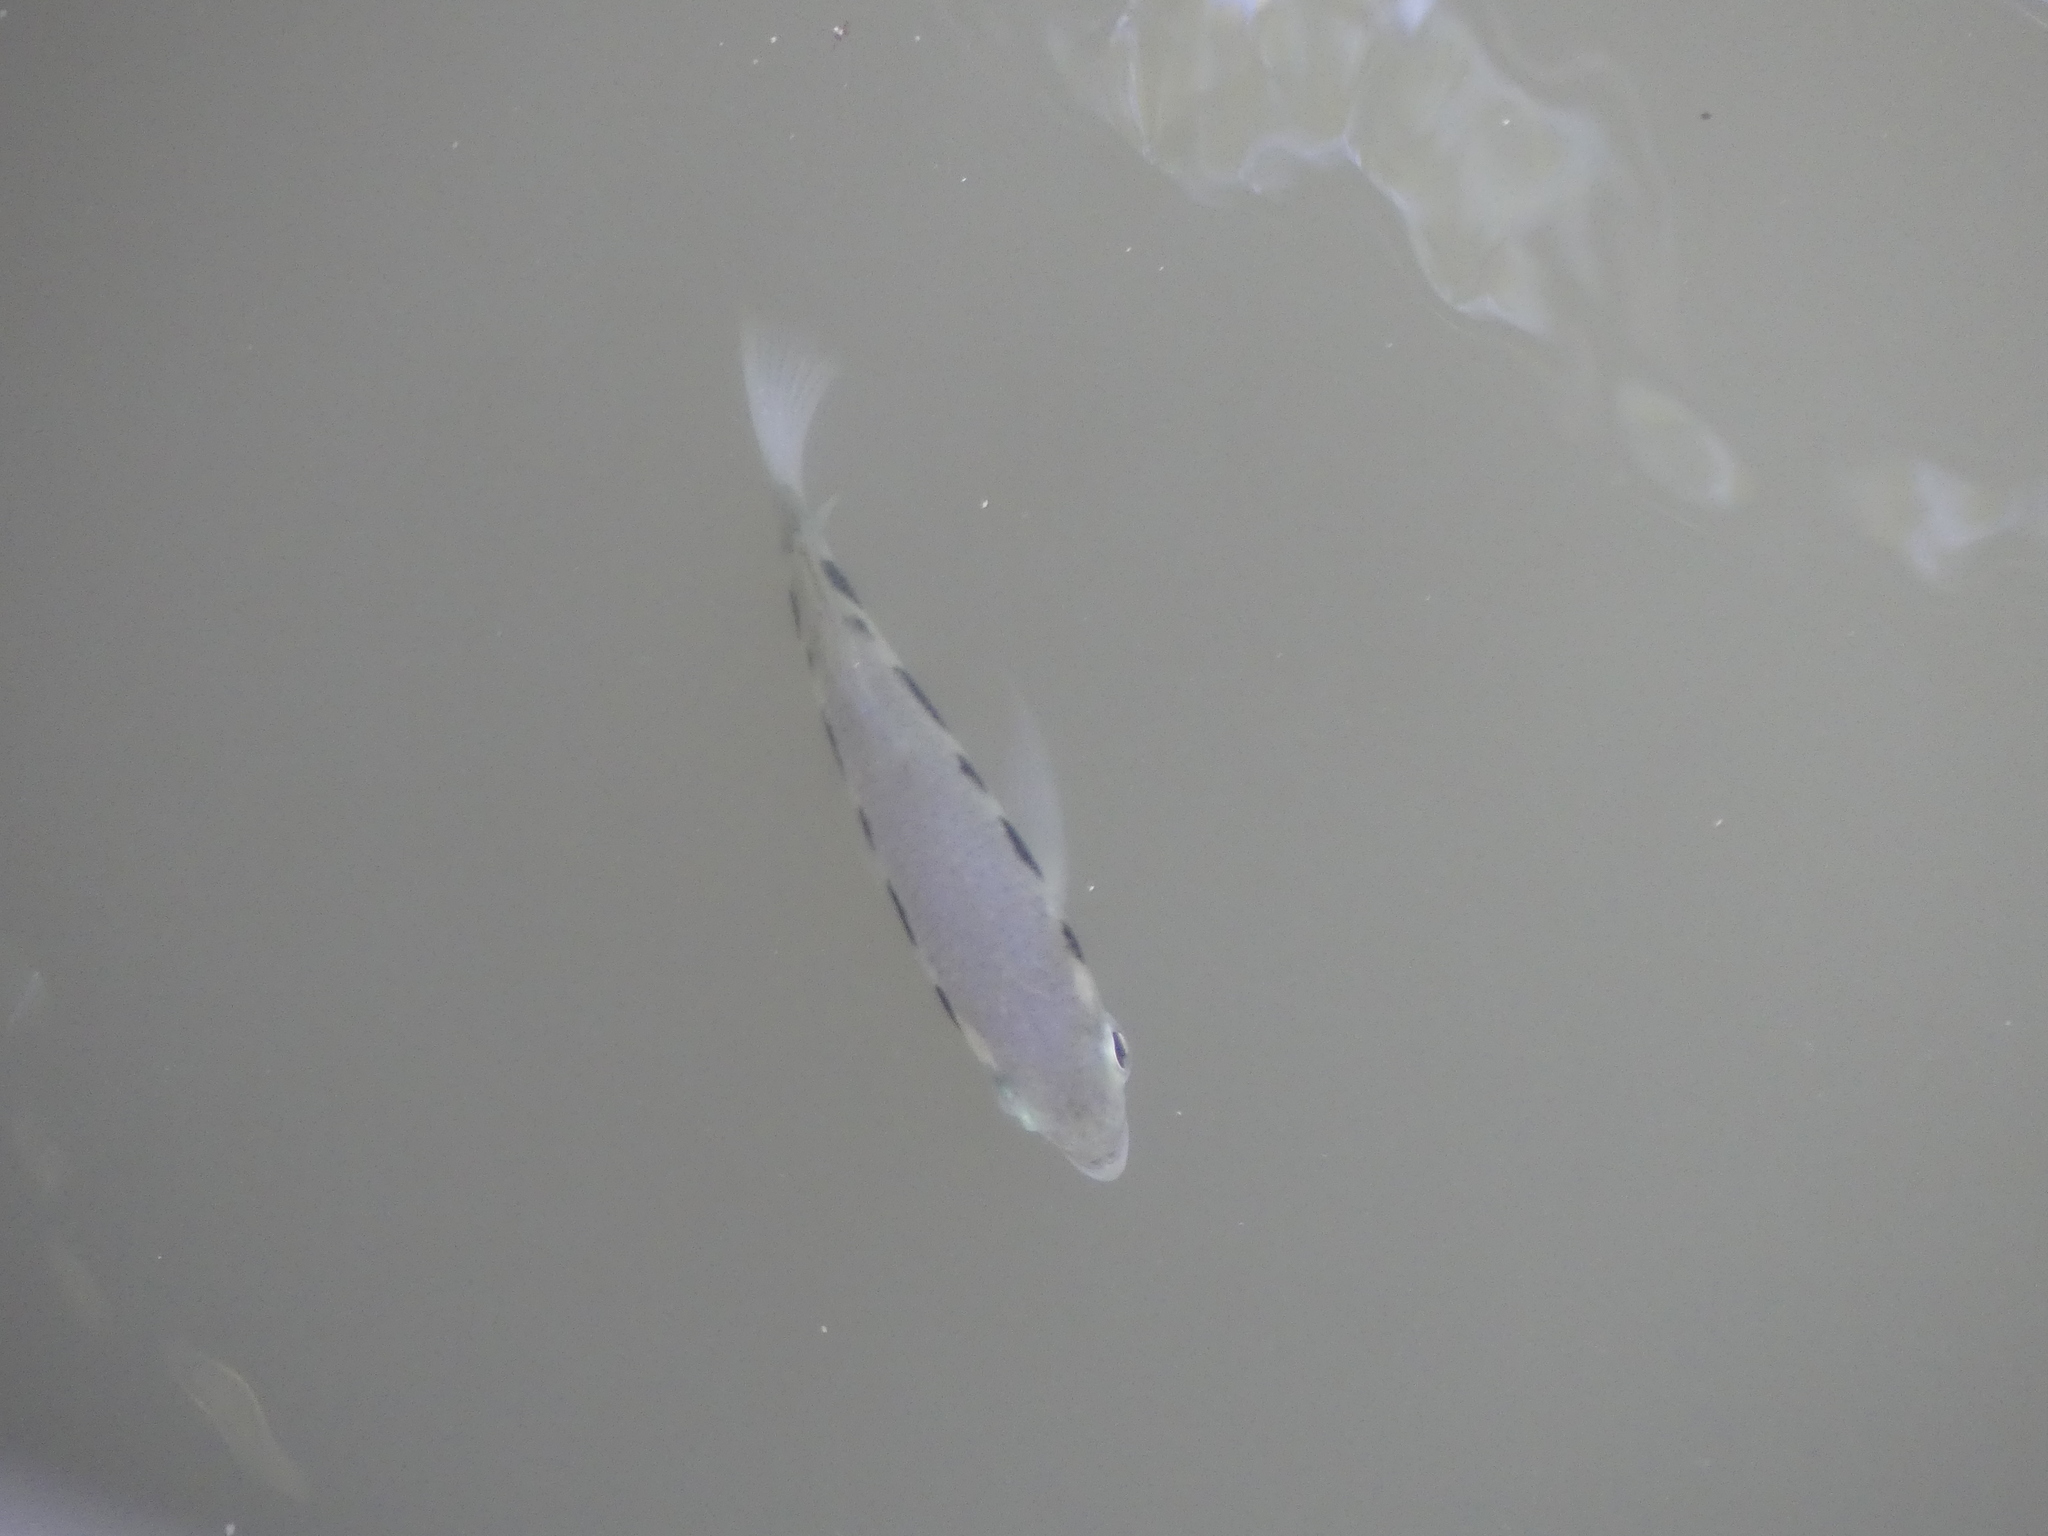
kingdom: Animalia
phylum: Chordata
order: Perciformes
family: Toxotidae
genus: Toxotes
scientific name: Toxotes chatareus
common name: Spotted archerfish
